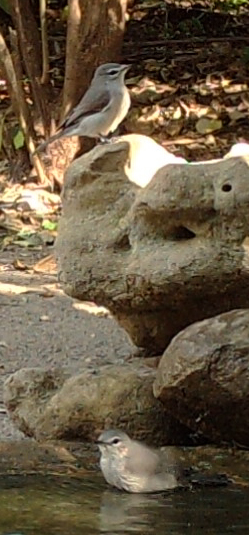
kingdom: Animalia
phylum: Chordata
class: Aves
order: Passeriformes
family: Muscicapidae
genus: Muscicapa
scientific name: Muscicapa caerulescens
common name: Ashy flycatcher
